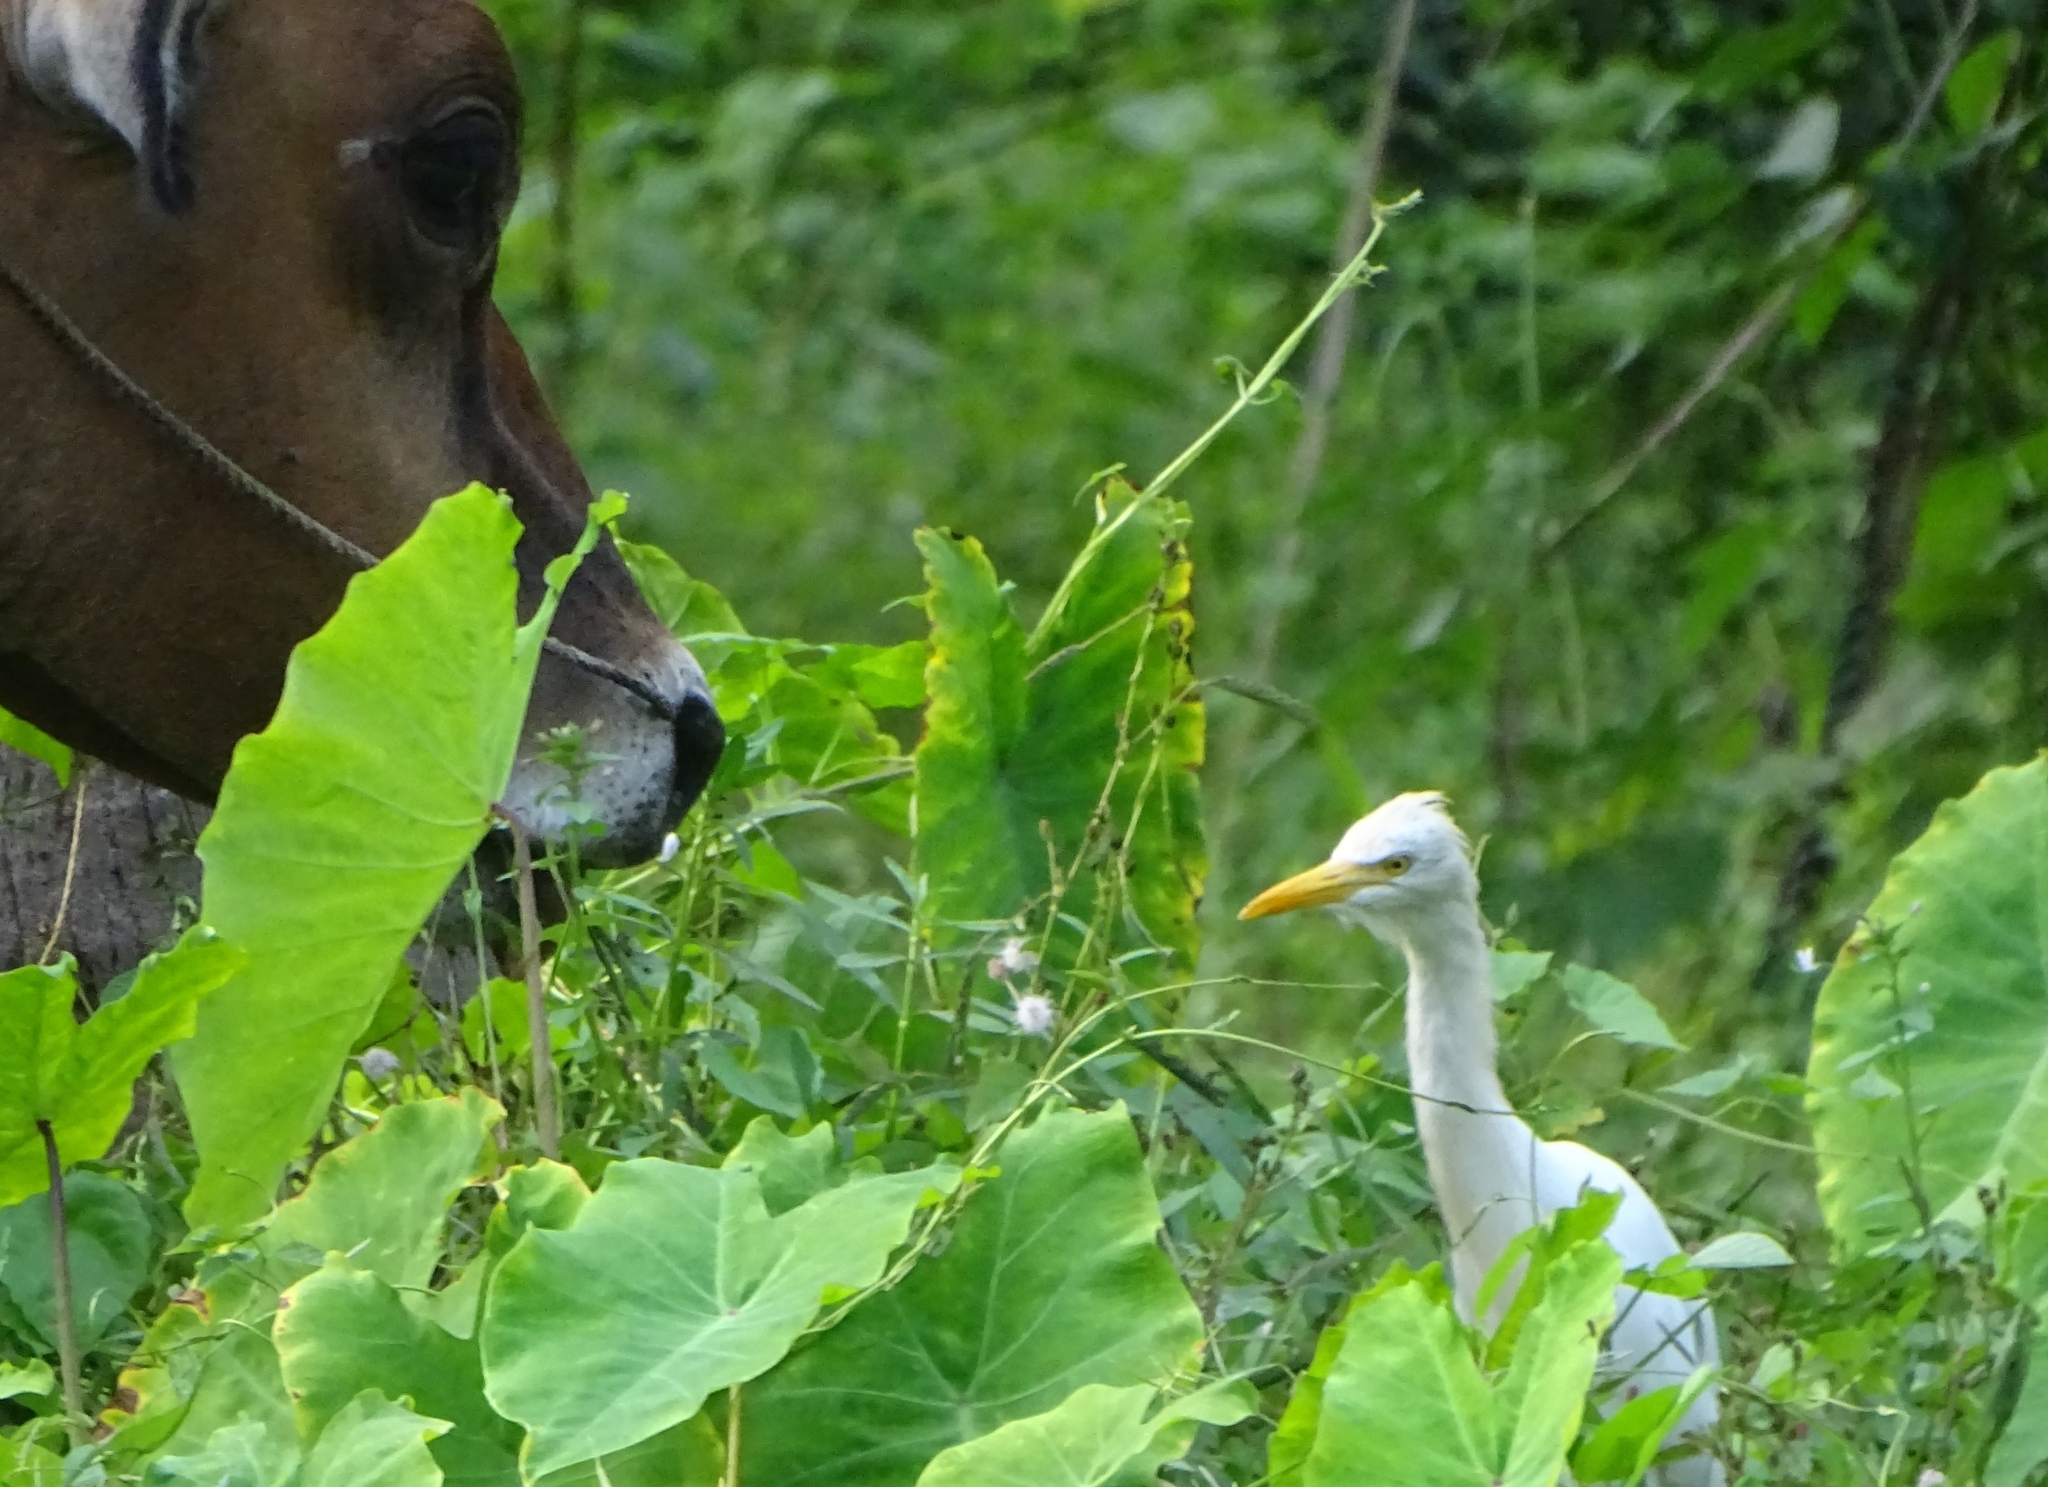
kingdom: Animalia
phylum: Chordata
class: Aves
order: Pelecaniformes
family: Ardeidae
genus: Bubulcus
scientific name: Bubulcus coromandus
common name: Eastern cattle egret
